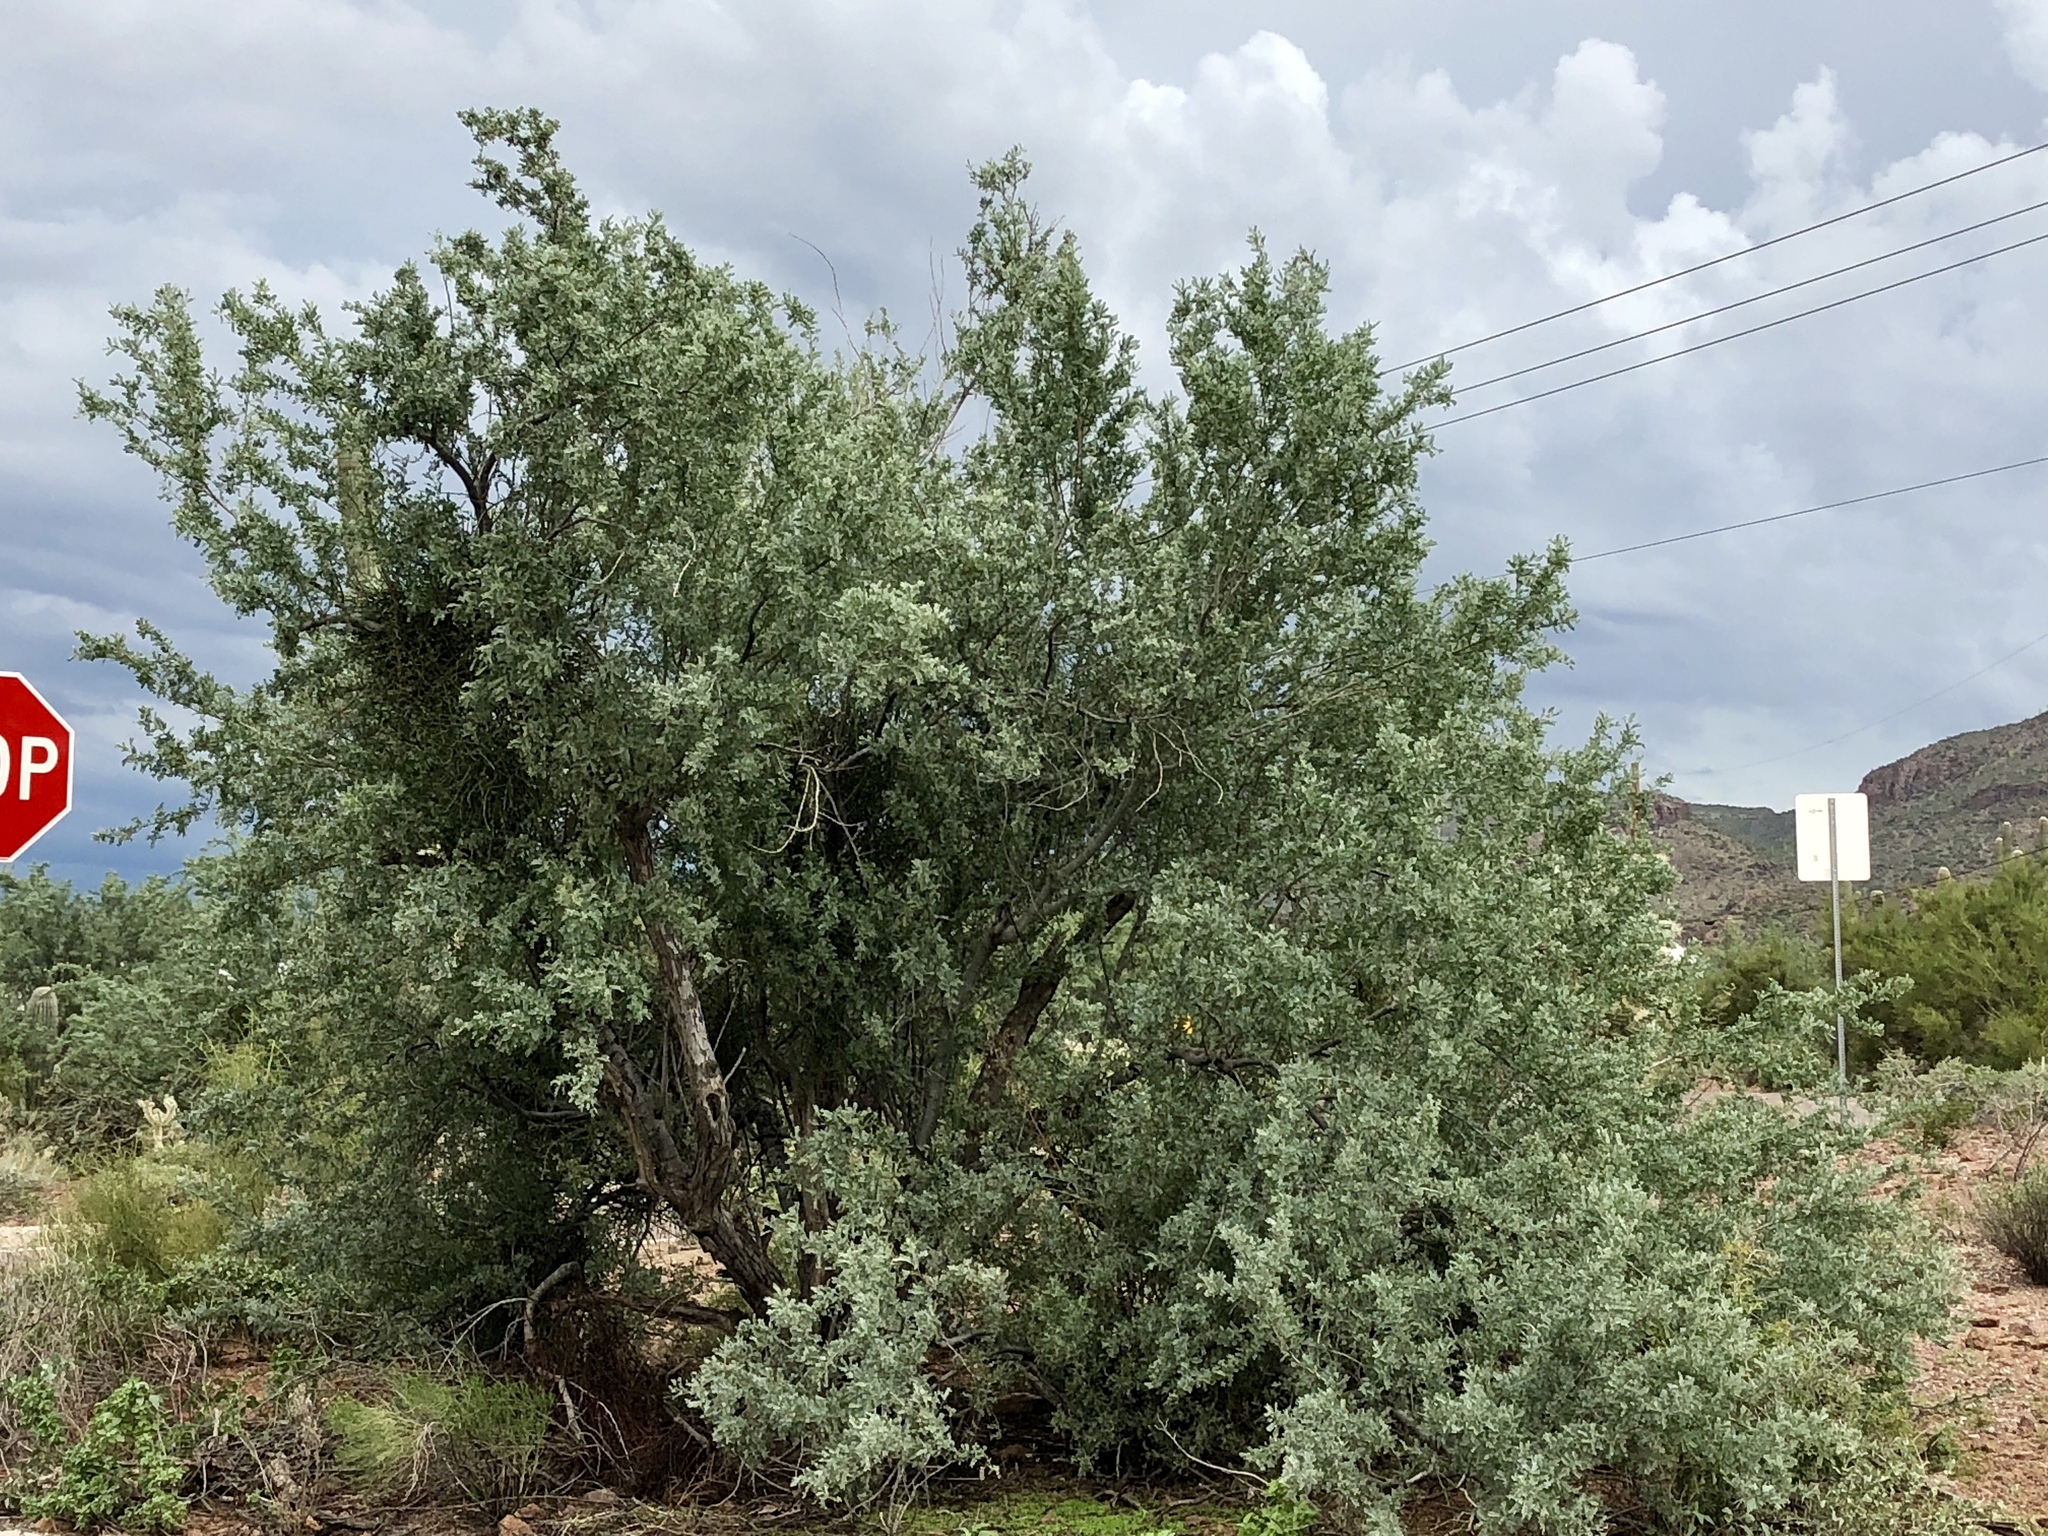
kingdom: Plantae
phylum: Tracheophyta
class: Magnoliopsida
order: Fabales
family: Fabaceae
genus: Olneya
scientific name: Olneya tesota
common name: Desert ironwood
